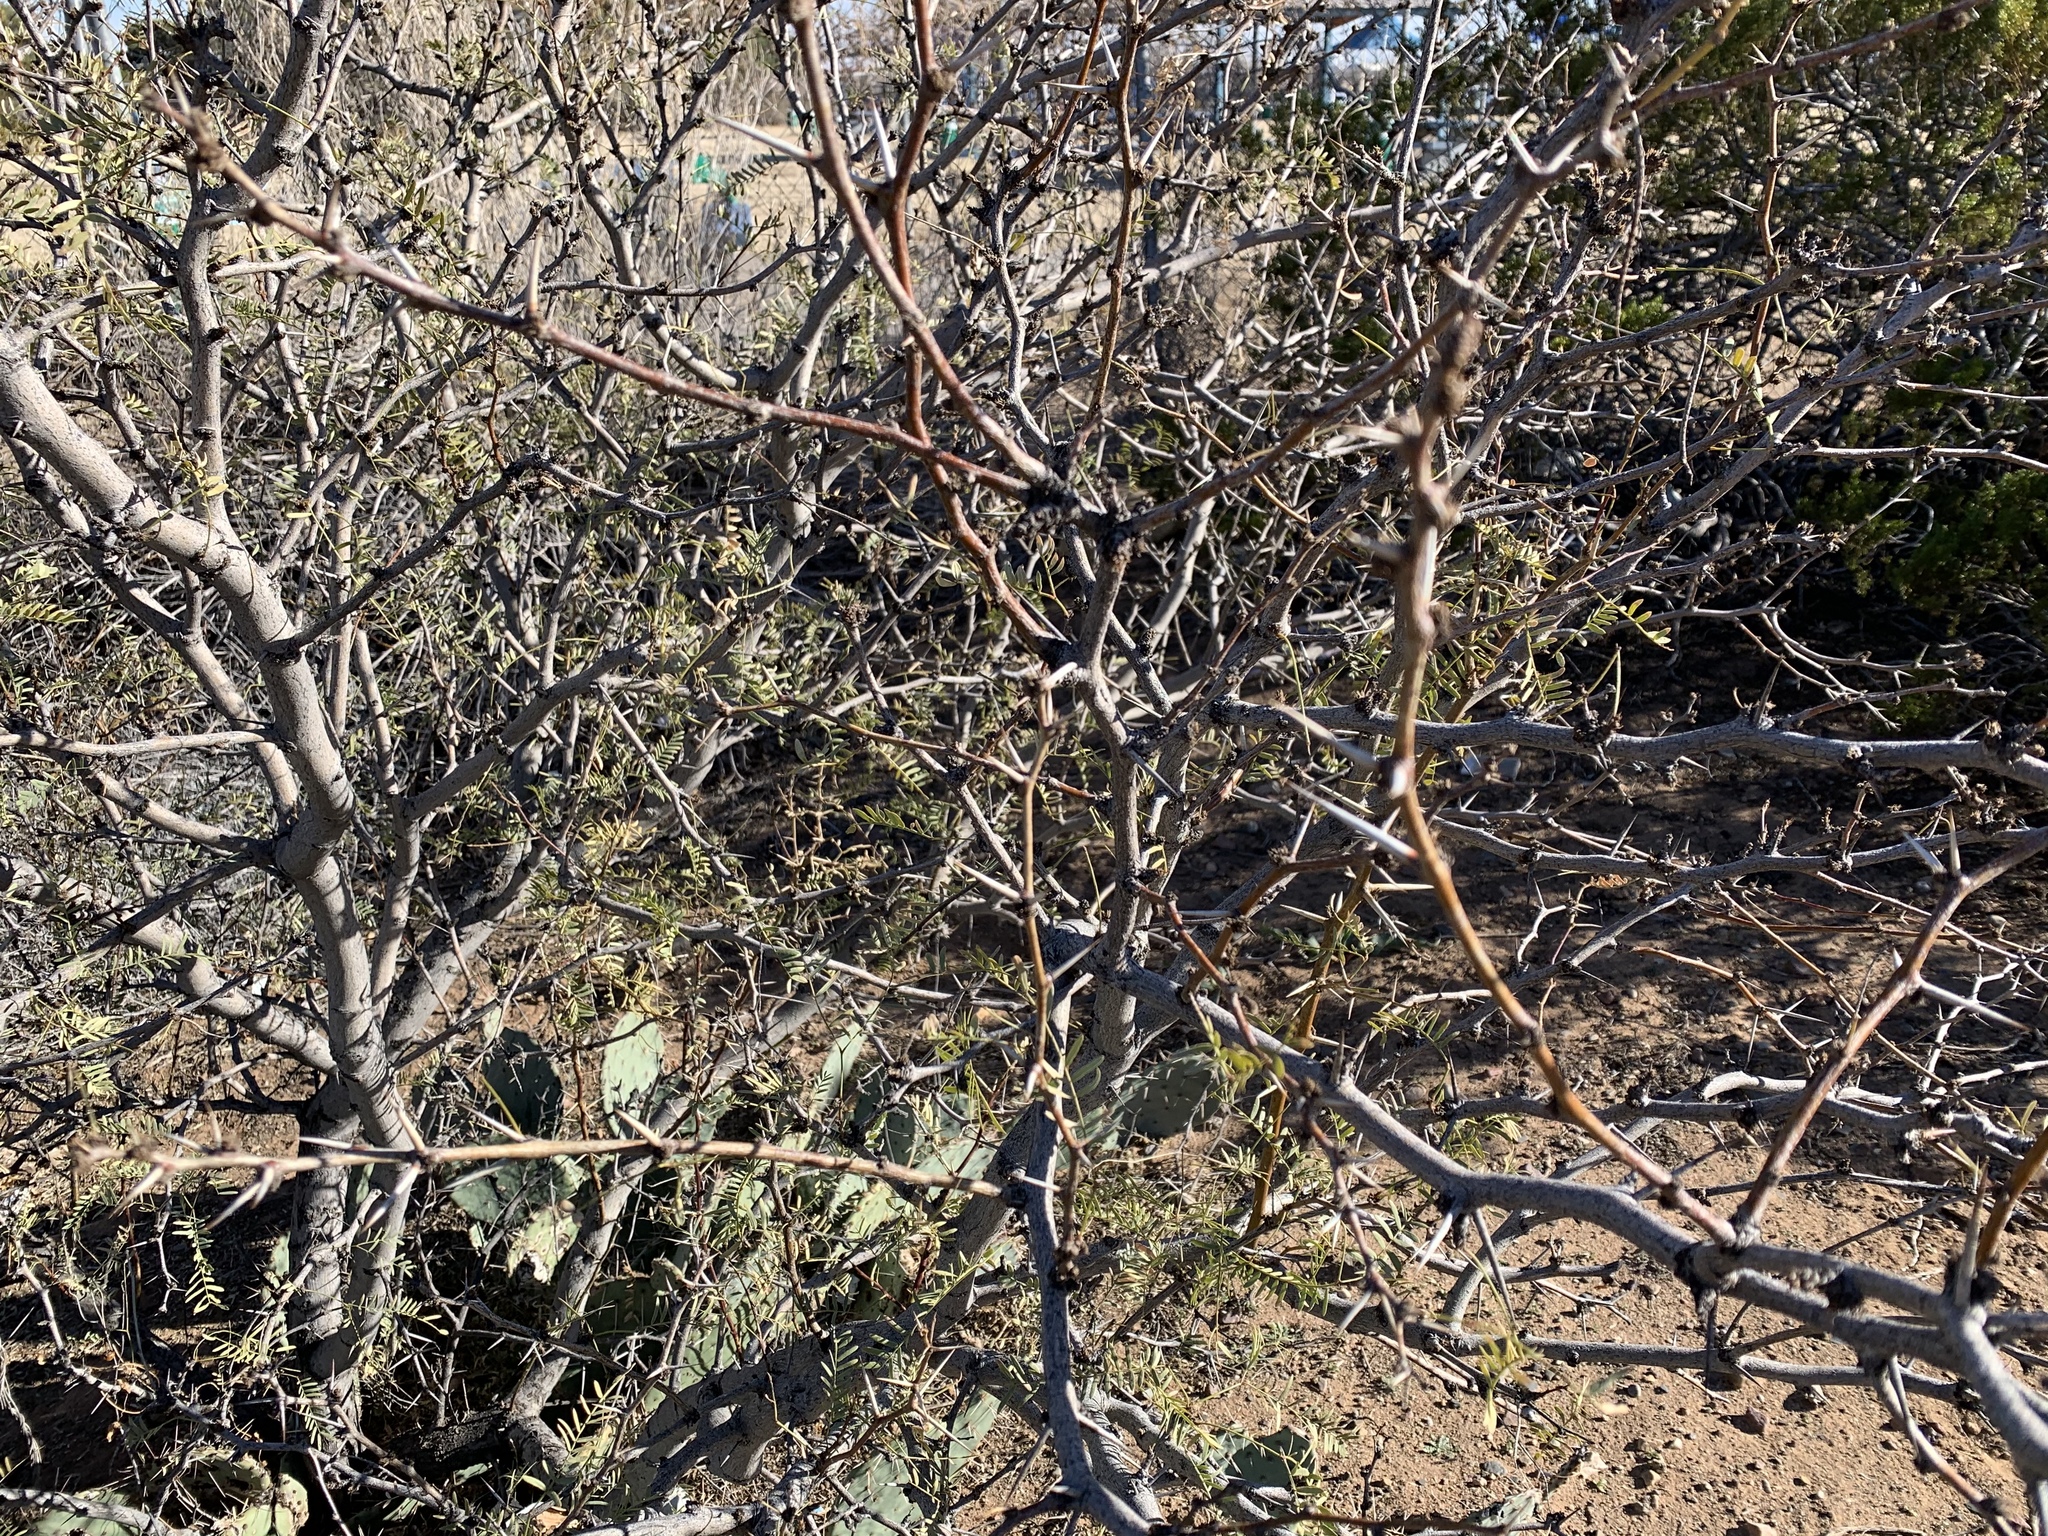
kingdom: Plantae
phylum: Tracheophyta
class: Magnoliopsida
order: Fabales
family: Fabaceae
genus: Prosopis
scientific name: Prosopis glandulosa
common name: Honey mesquite
